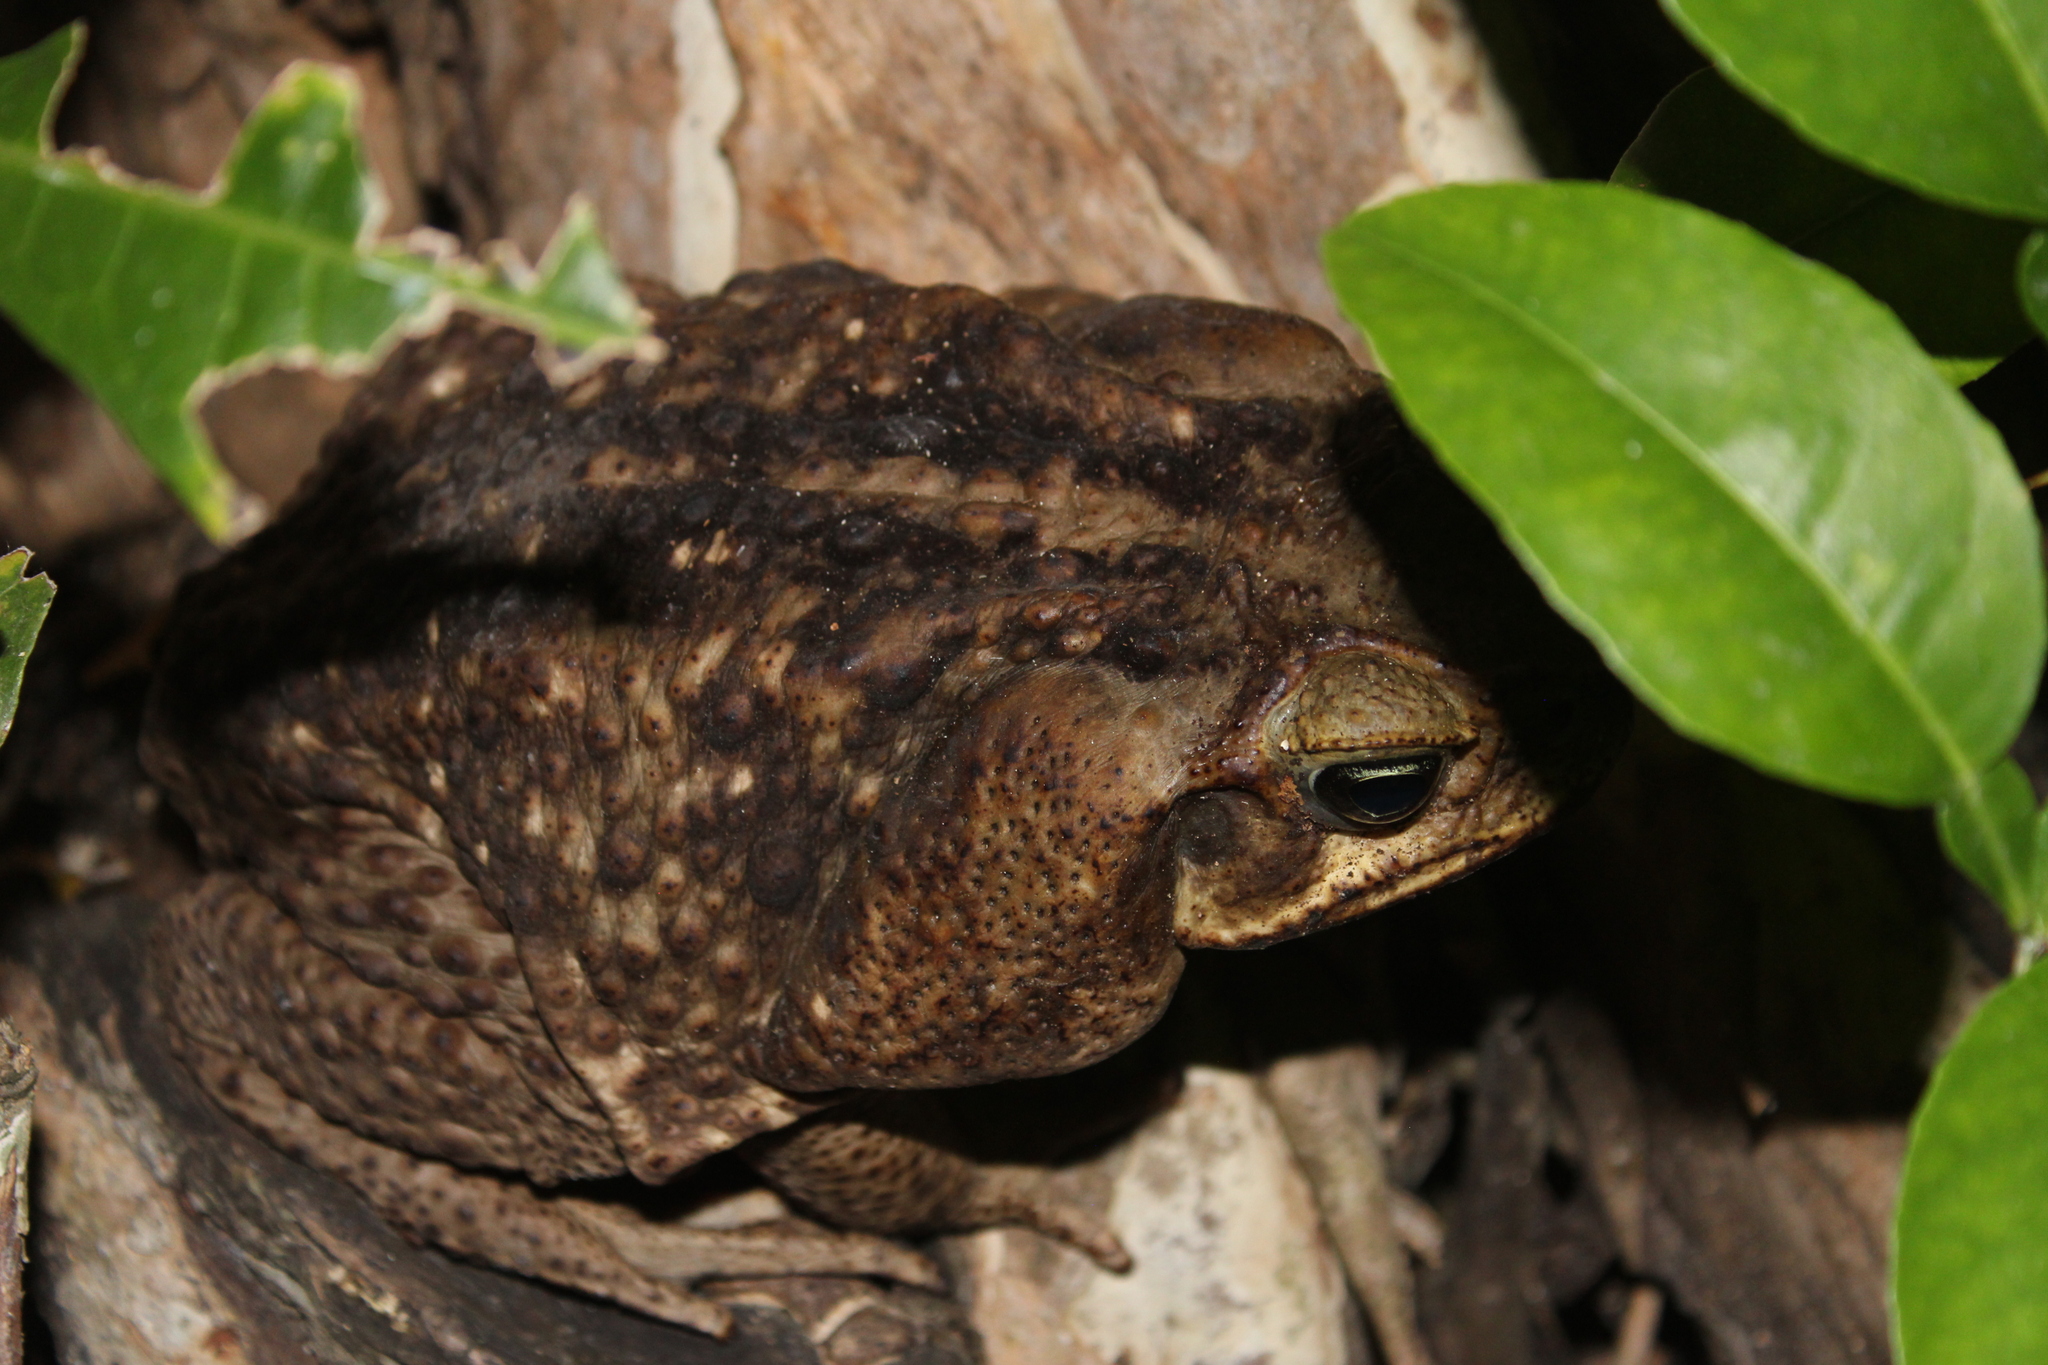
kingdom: Animalia
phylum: Chordata
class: Amphibia
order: Anura
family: Bufonidae
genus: Rhinella
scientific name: Rhinella horribilis
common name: Mesoamerican cane toad
